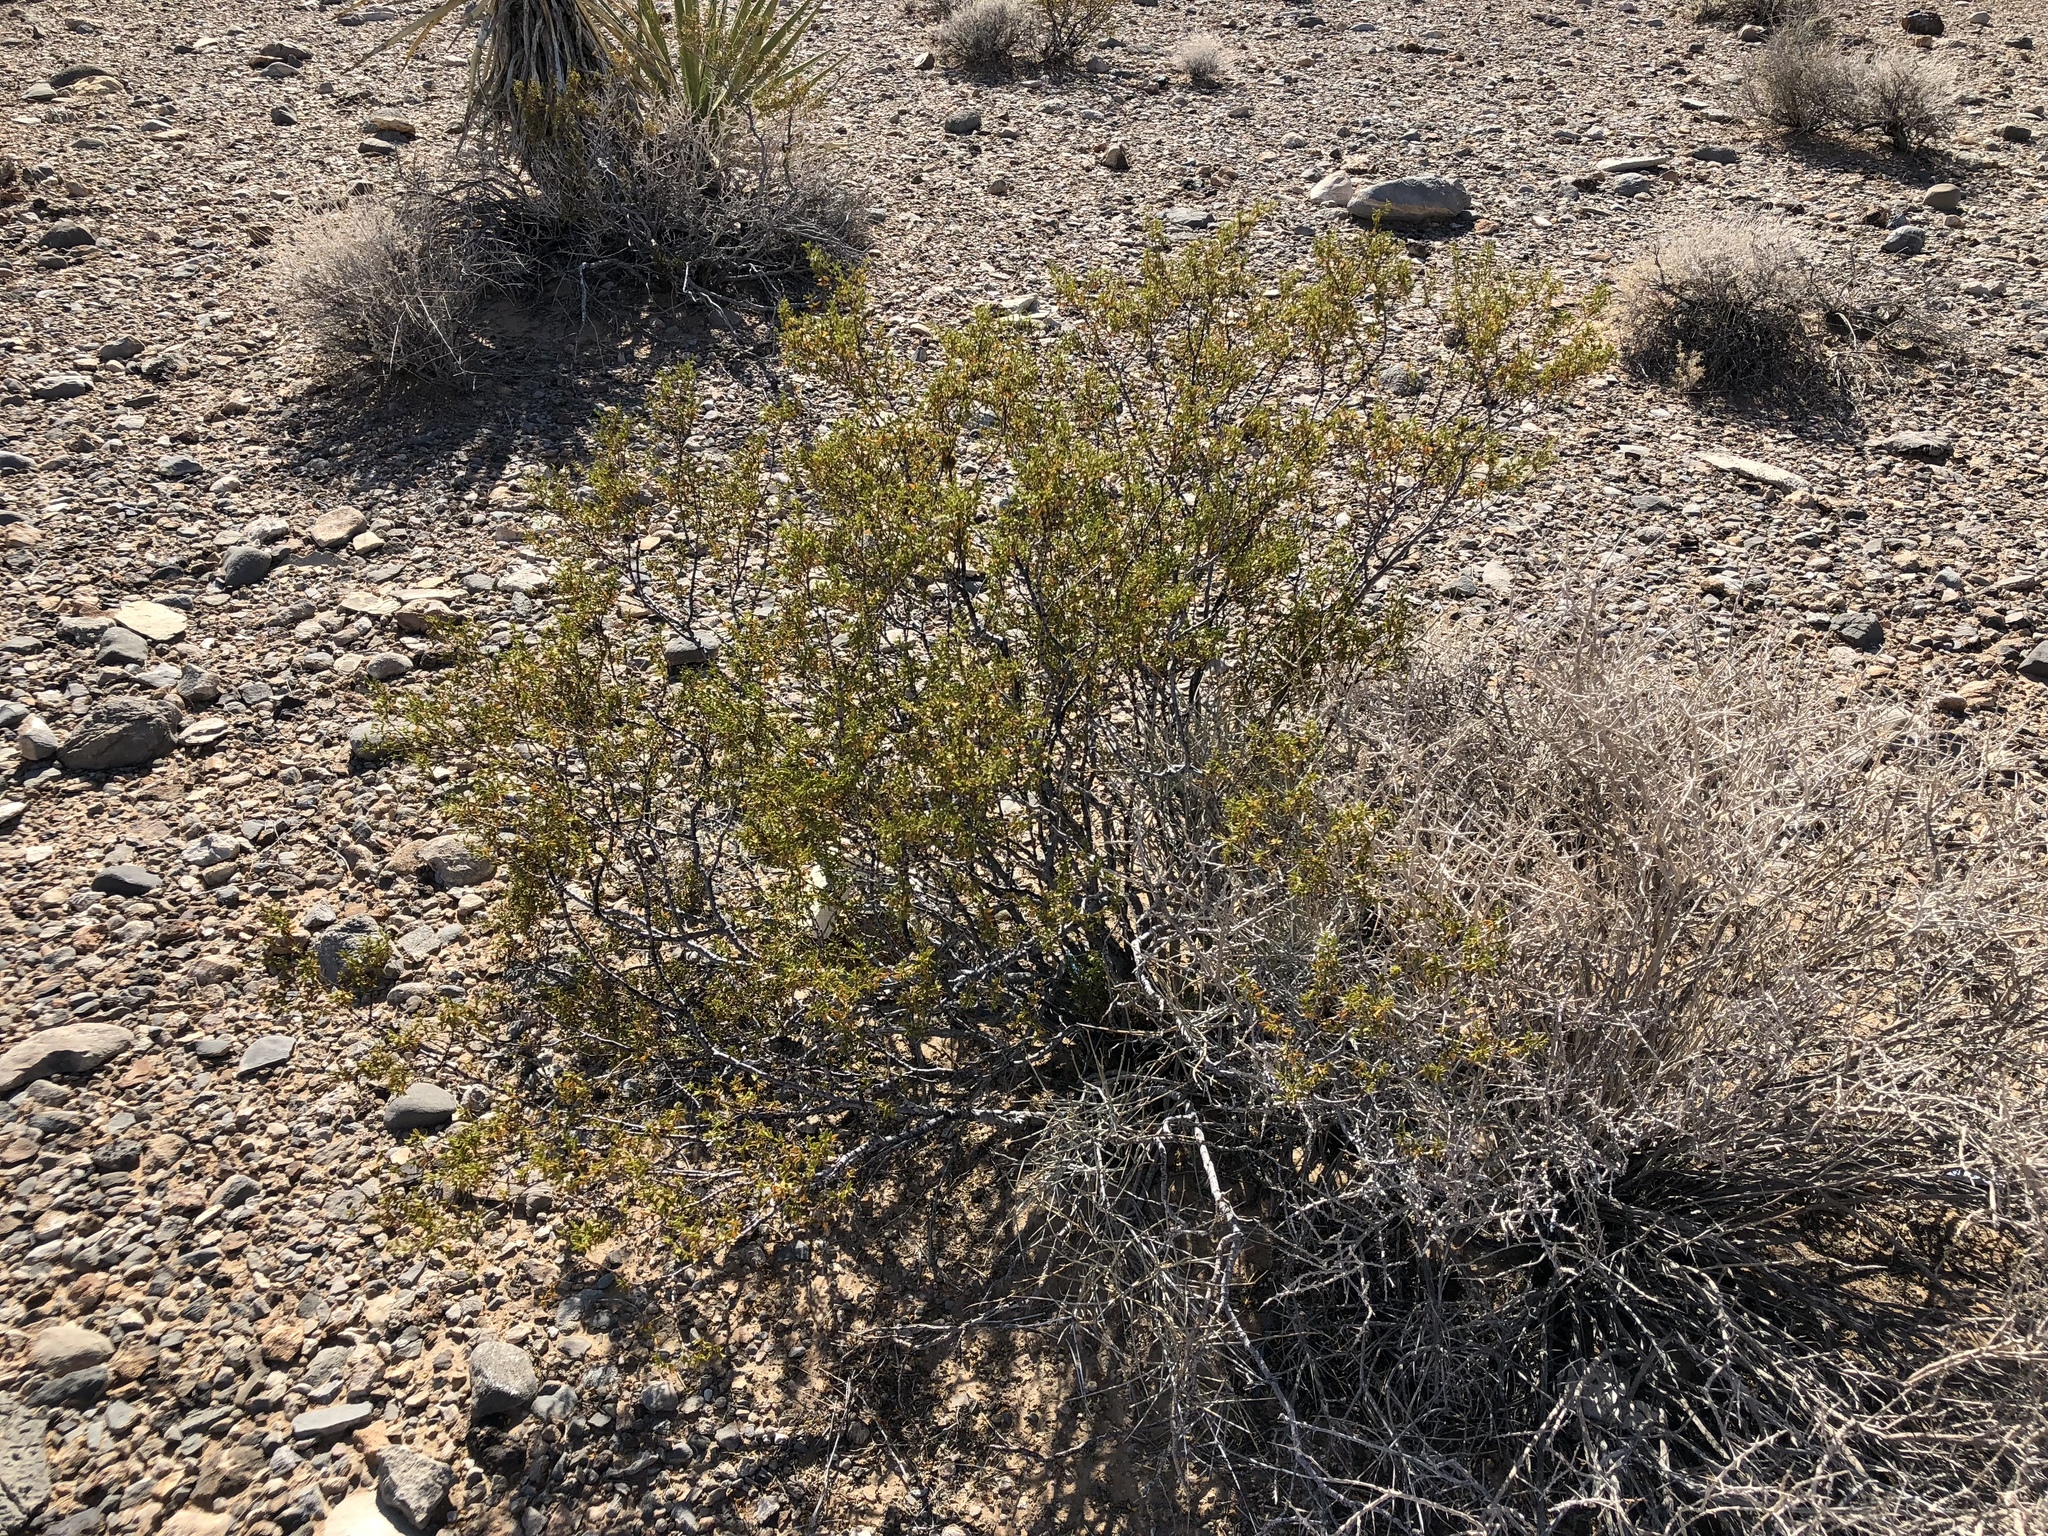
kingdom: Plantae
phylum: Tracheophyta
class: Magnoliopsida
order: Zygophyllales
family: Zygophyllaceae
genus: Larrea
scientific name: Larrea tridentata
